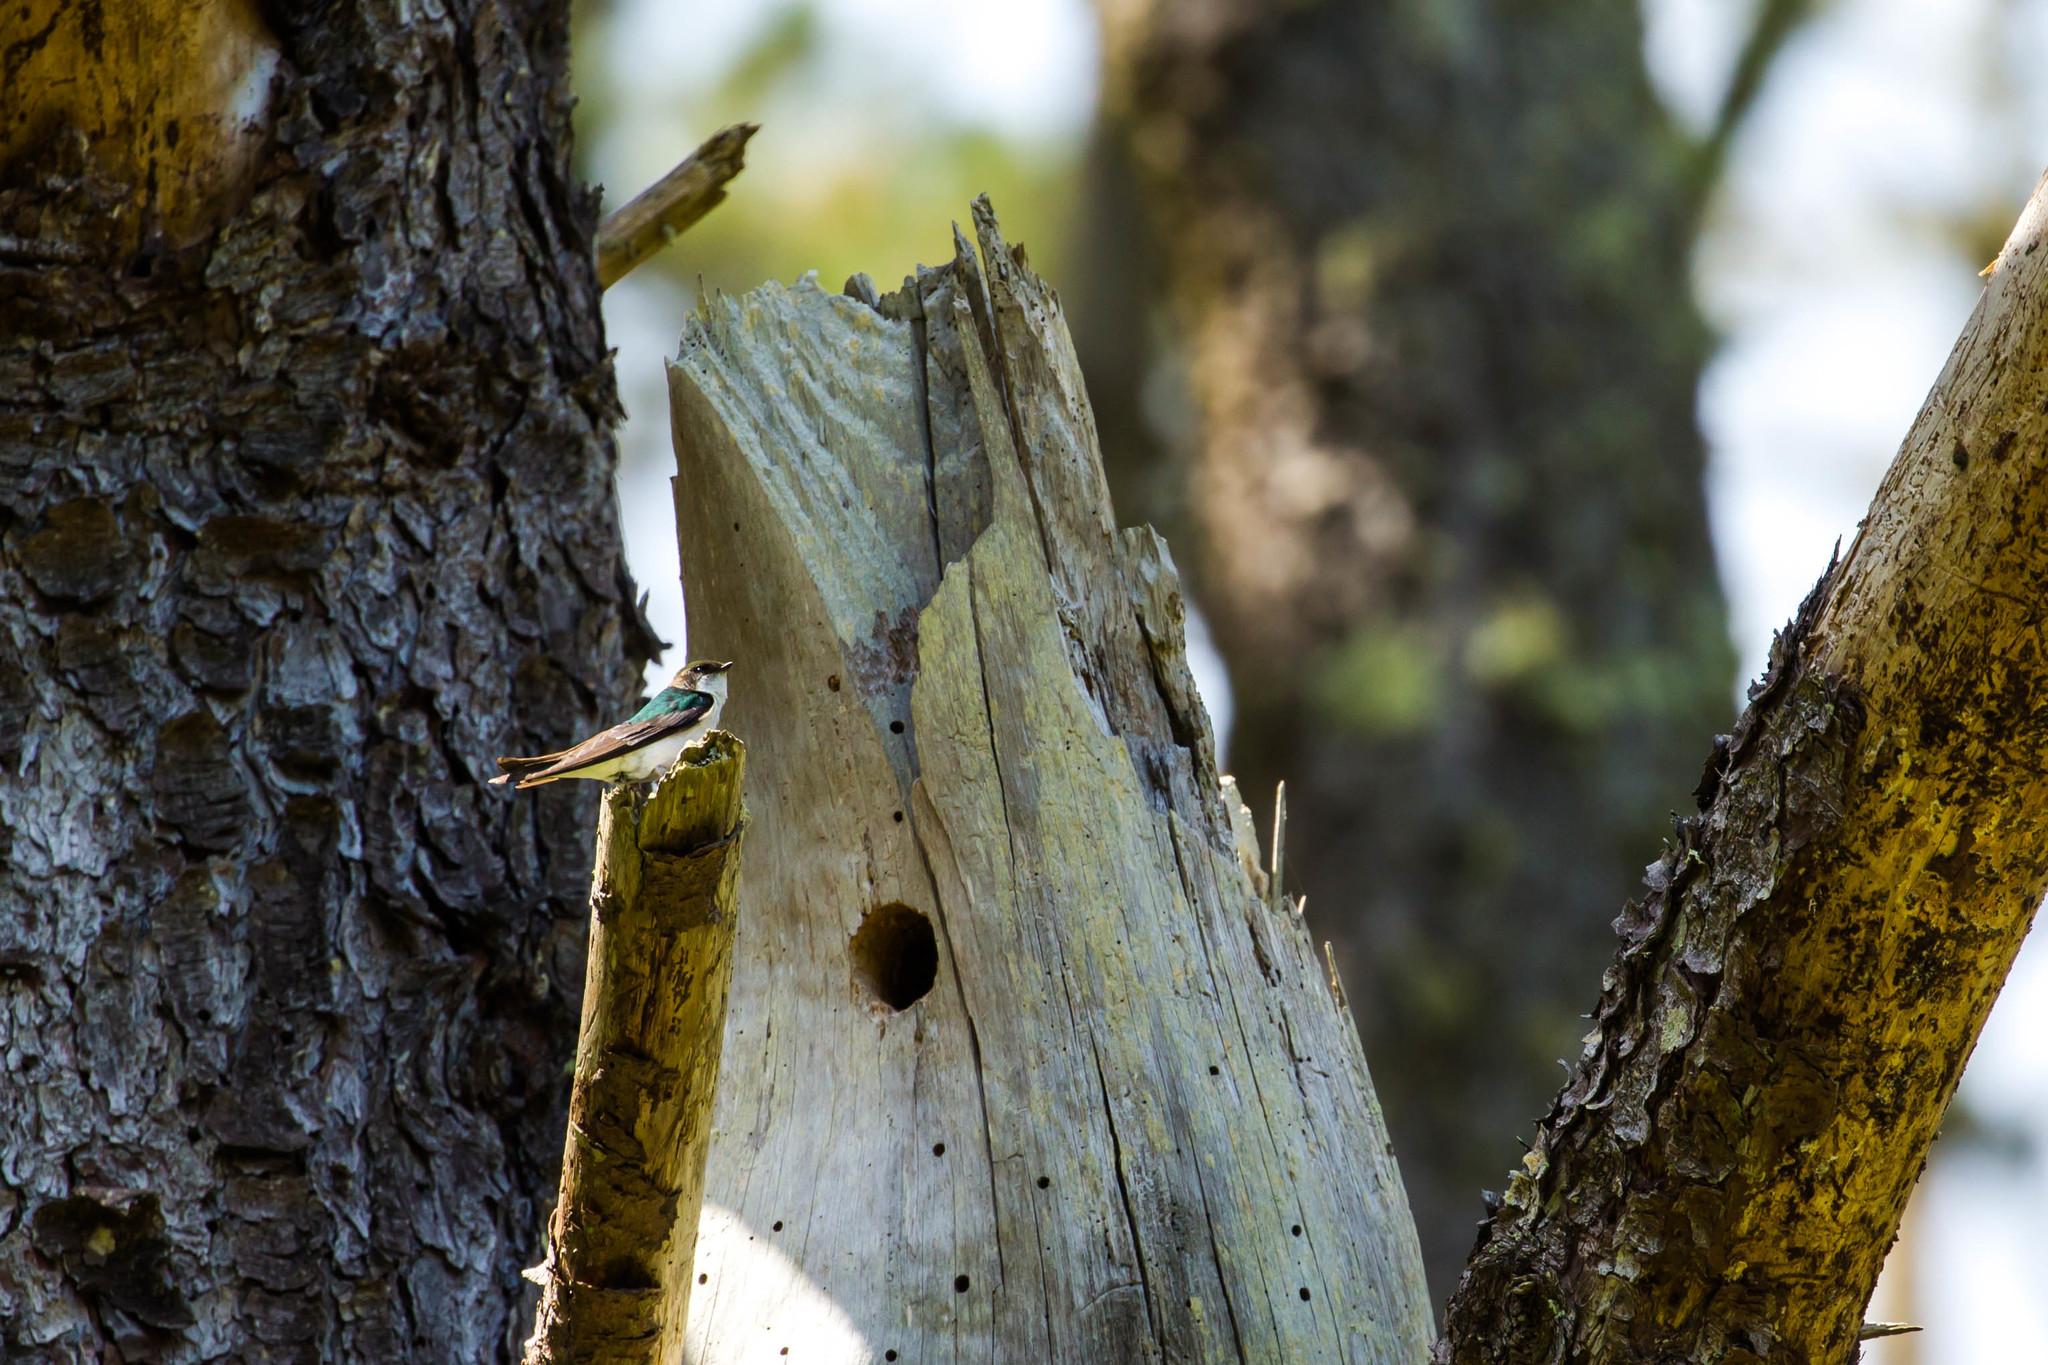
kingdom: Animalia
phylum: Chordata
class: Aves
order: Passeriformes
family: Hirundinidae
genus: Tachycineta
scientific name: Tachycineta thalassina
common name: Violet-green swallow
